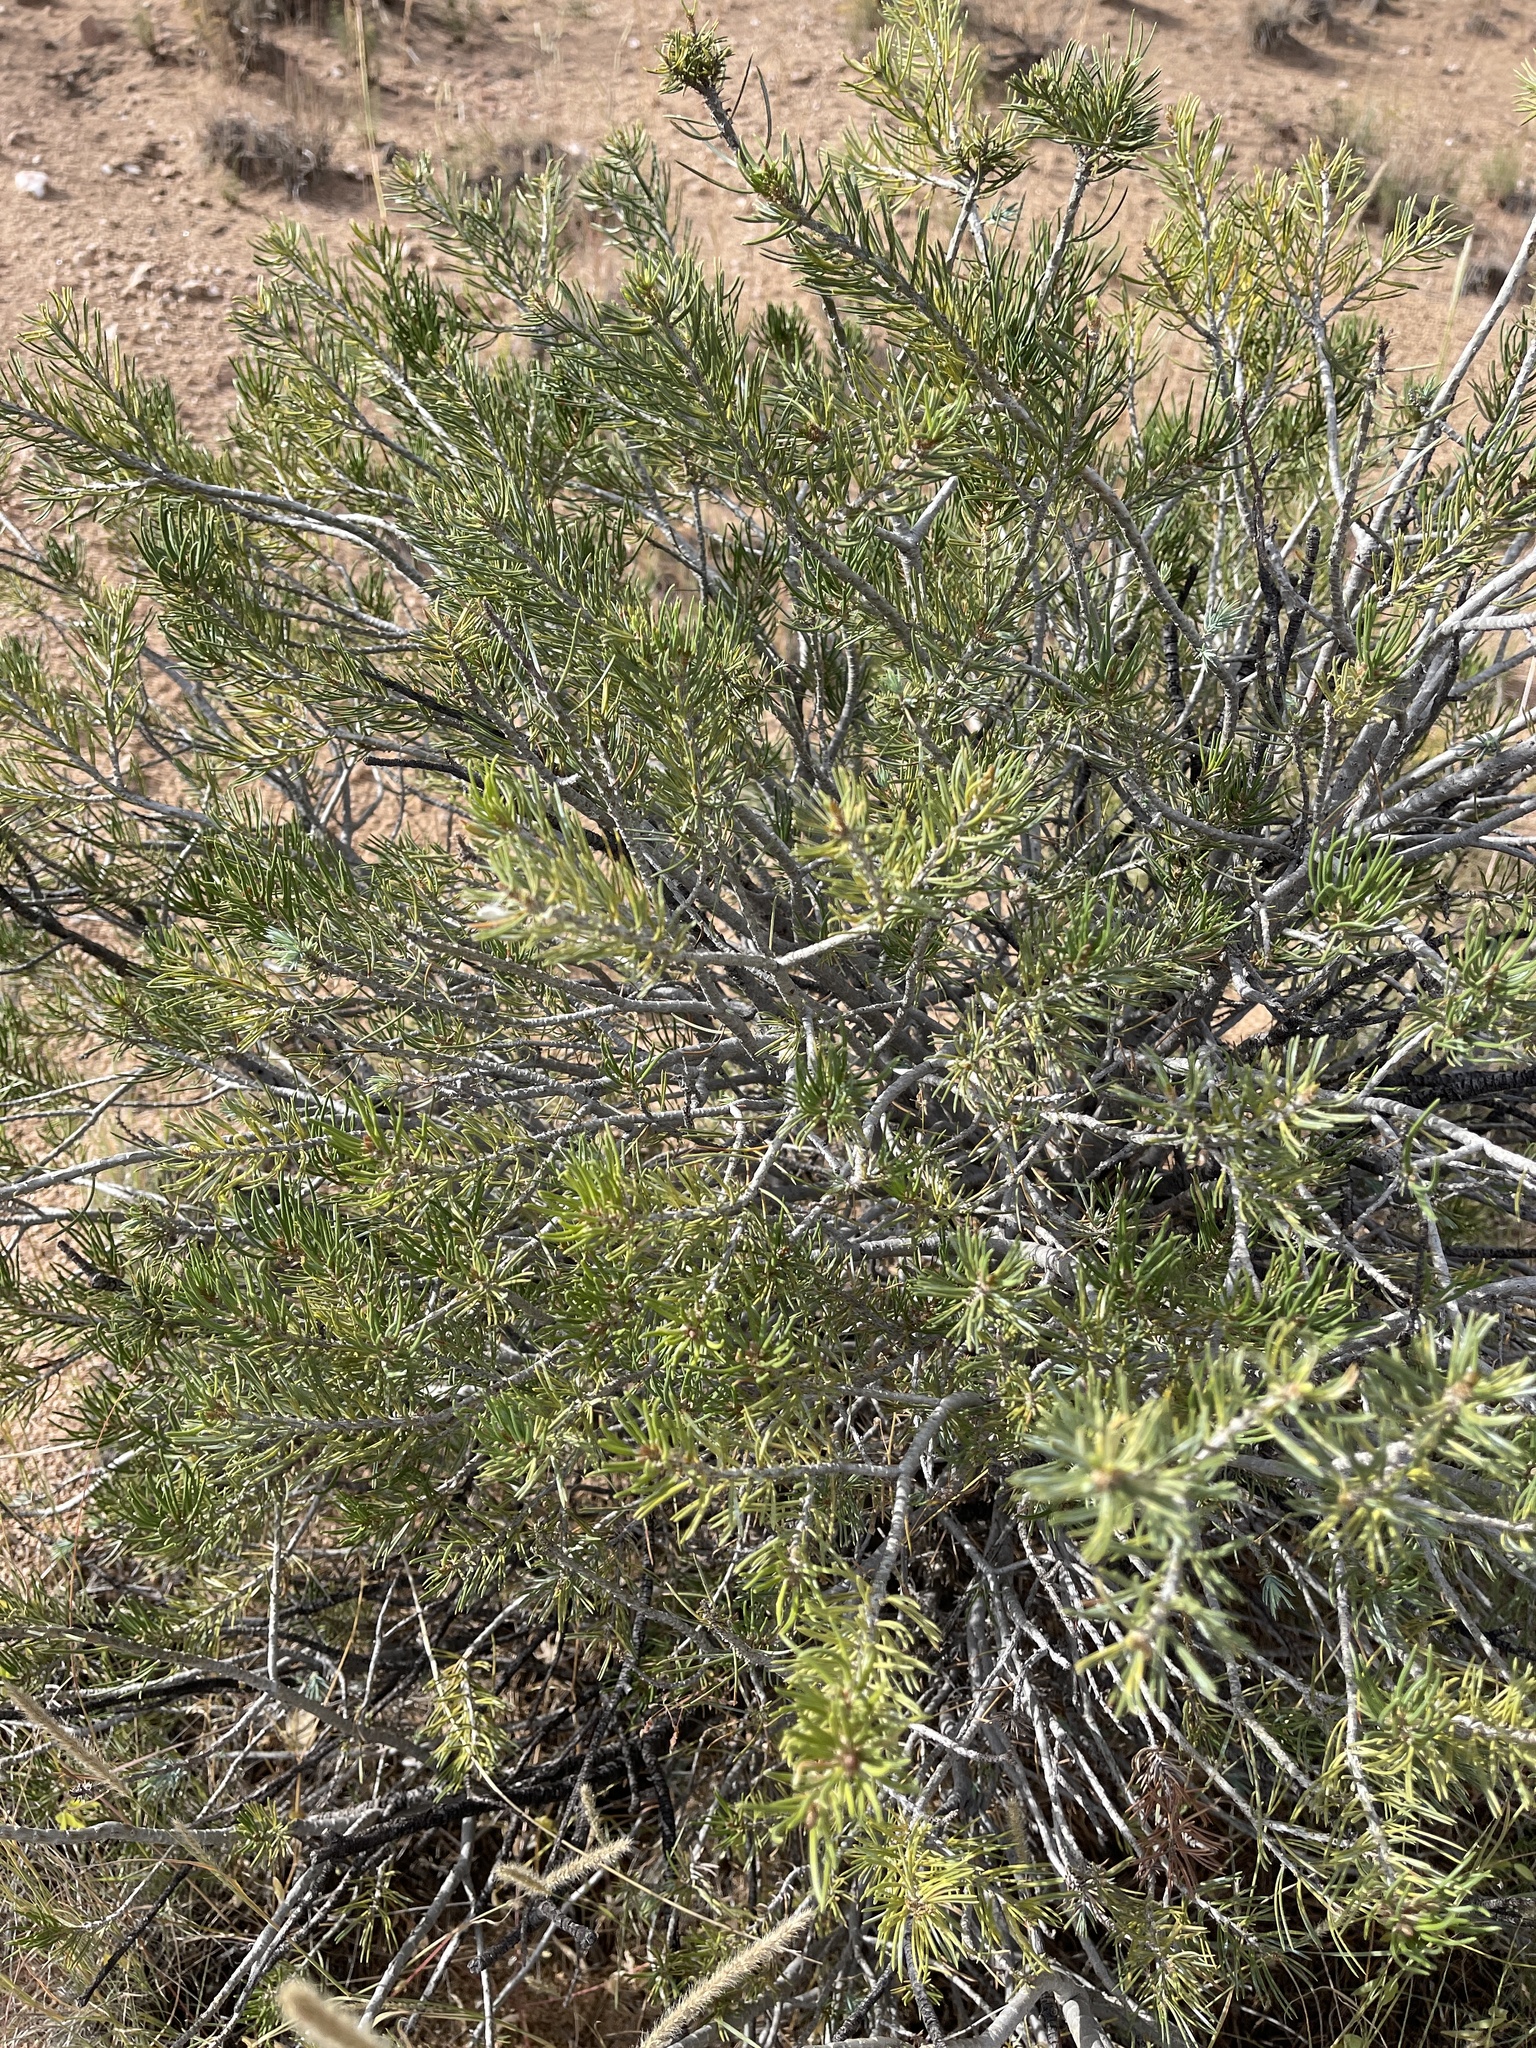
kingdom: Plantae
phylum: Tracheophyta
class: Pinopsida
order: Pinales
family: Pinaceae
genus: Pinus
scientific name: Pinus edulis
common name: Colorado pinyon
